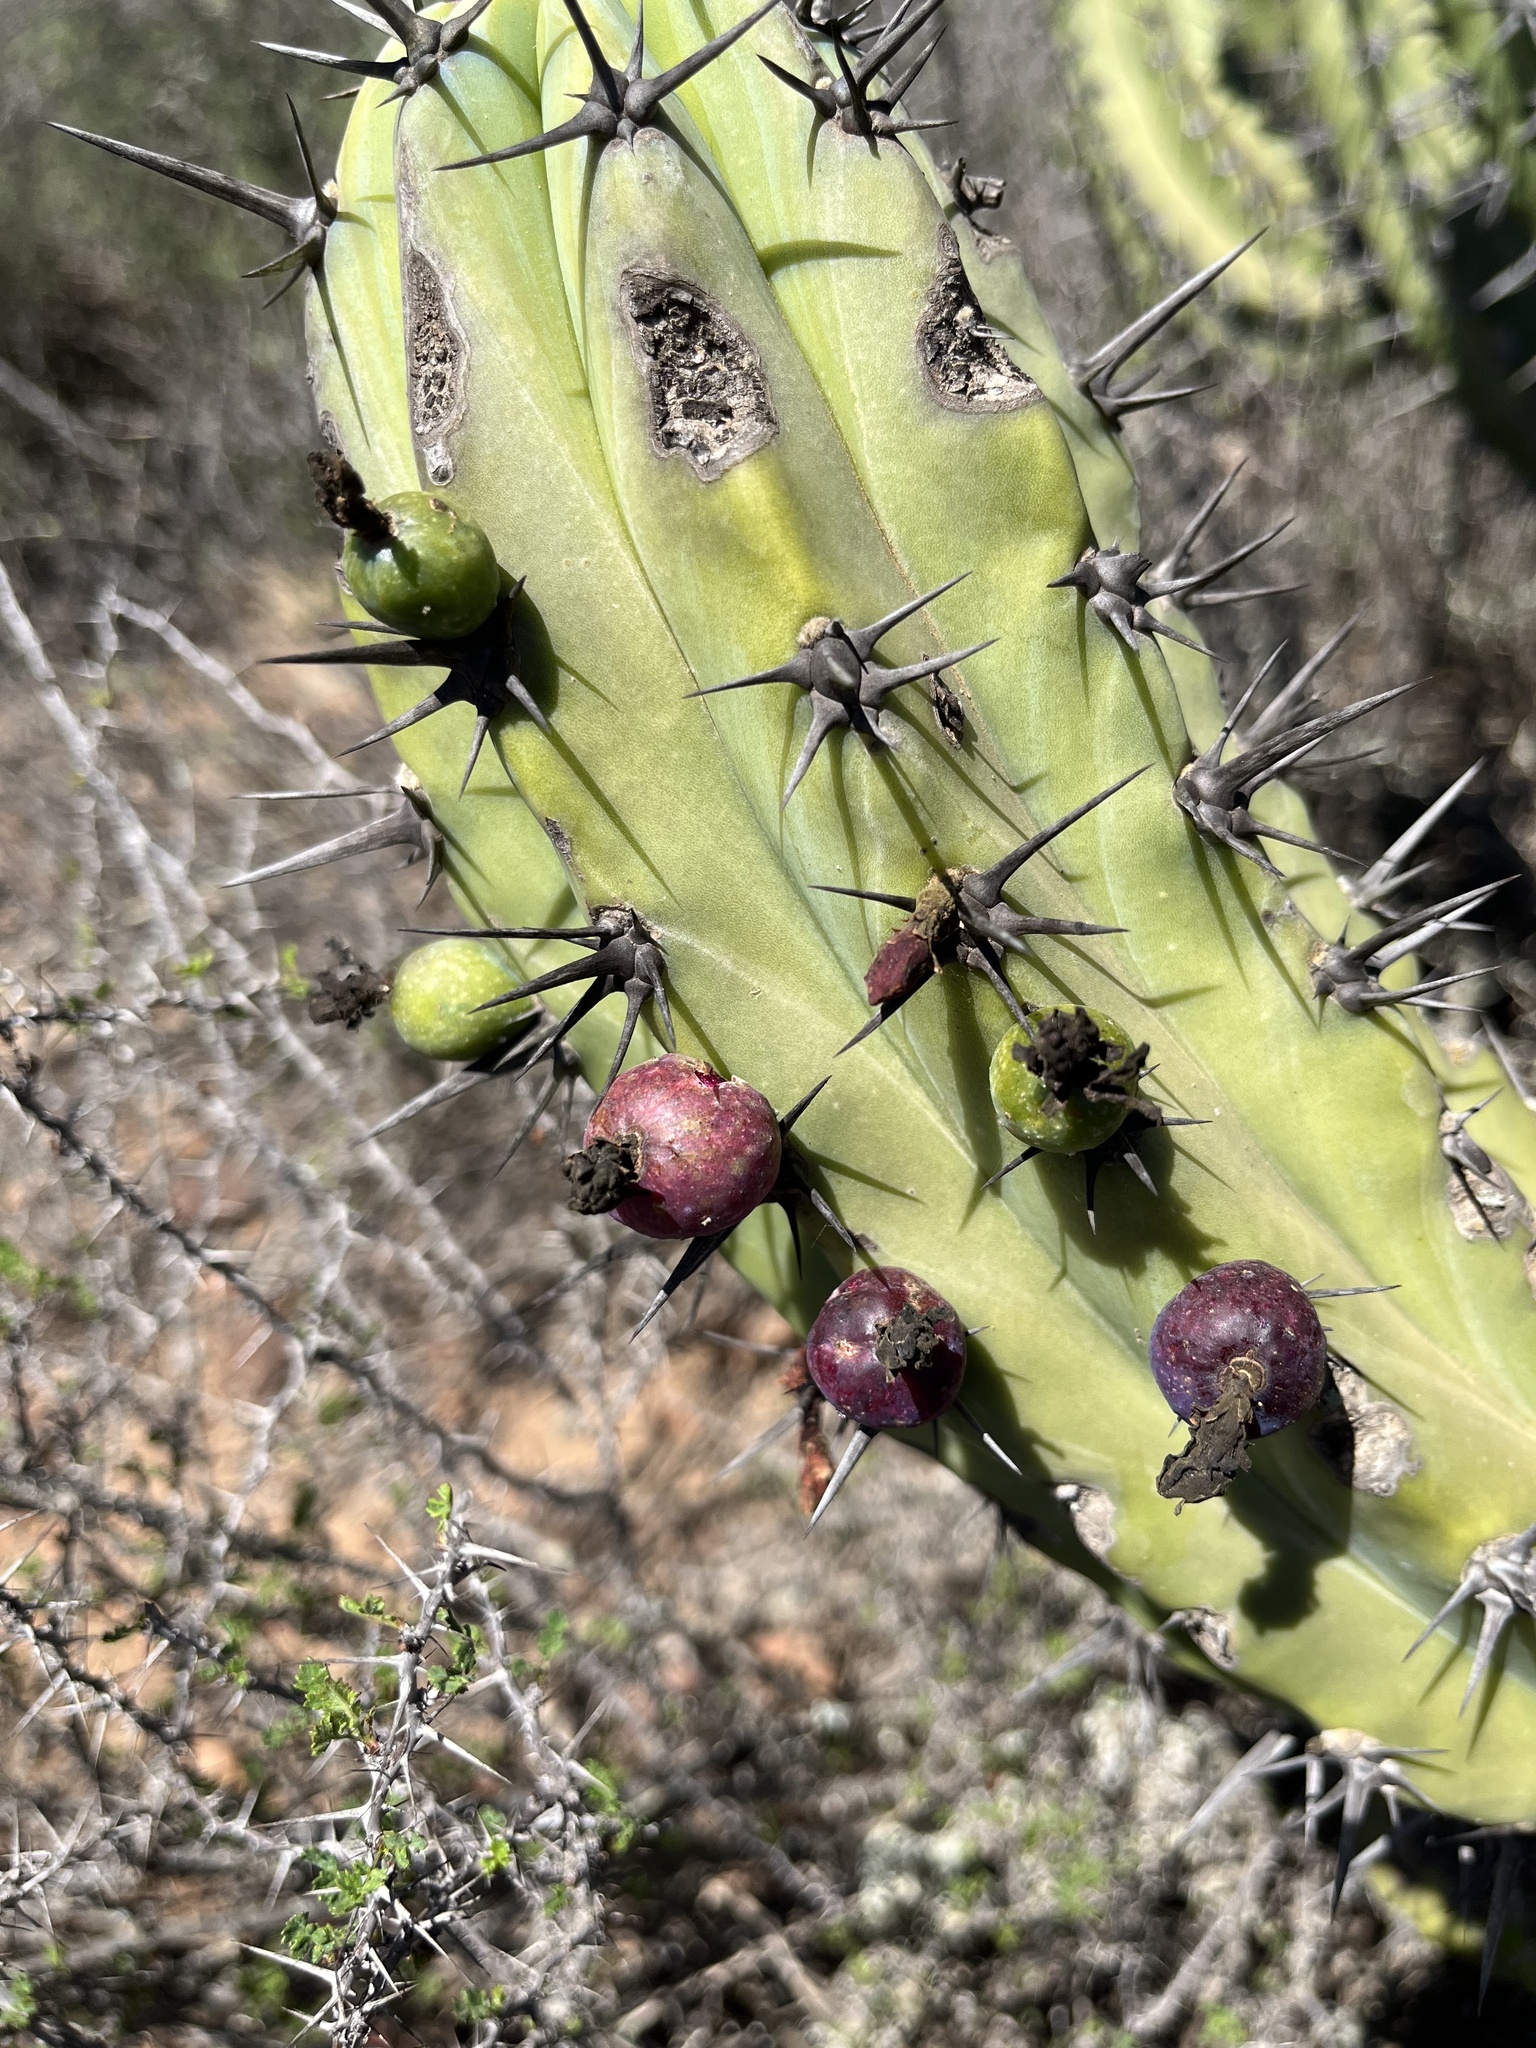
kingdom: Plantae
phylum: Tracheophyta
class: Magnoliopsida
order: Caryophyllales
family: Cactaceae
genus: Myrtillocactus
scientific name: Myrtillocactus cochal
